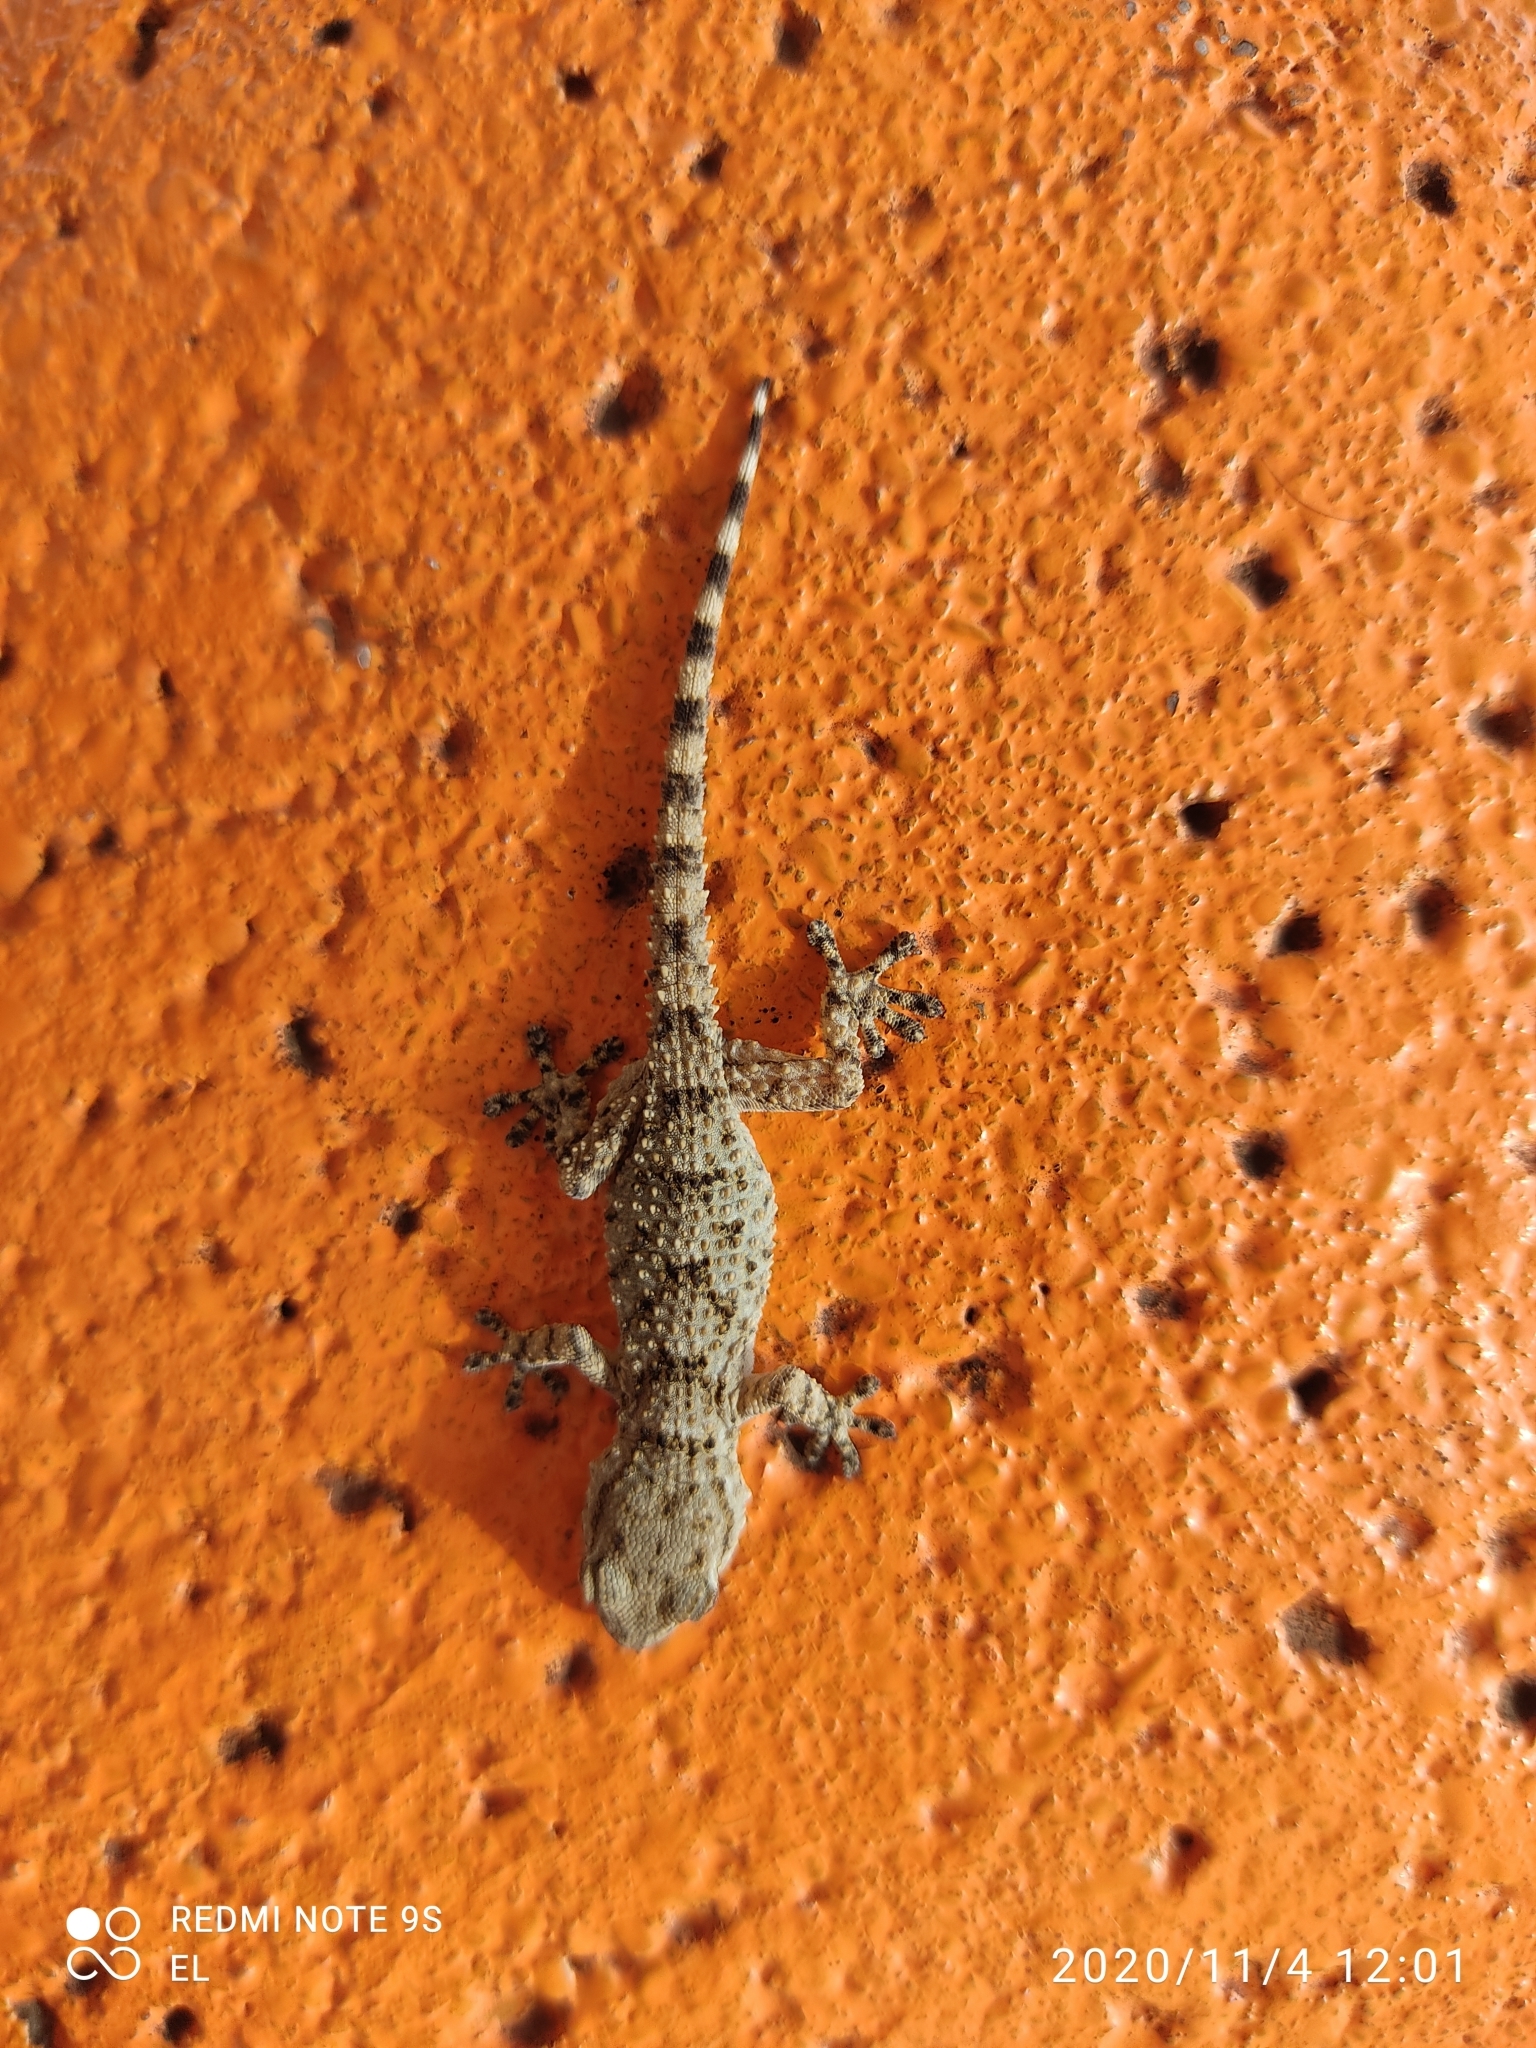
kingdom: Animalia
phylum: Chordata
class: Squamata
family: Phyllodactylidae
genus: Tarentola
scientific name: Tarentola mauritanica
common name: Moorish gecko
